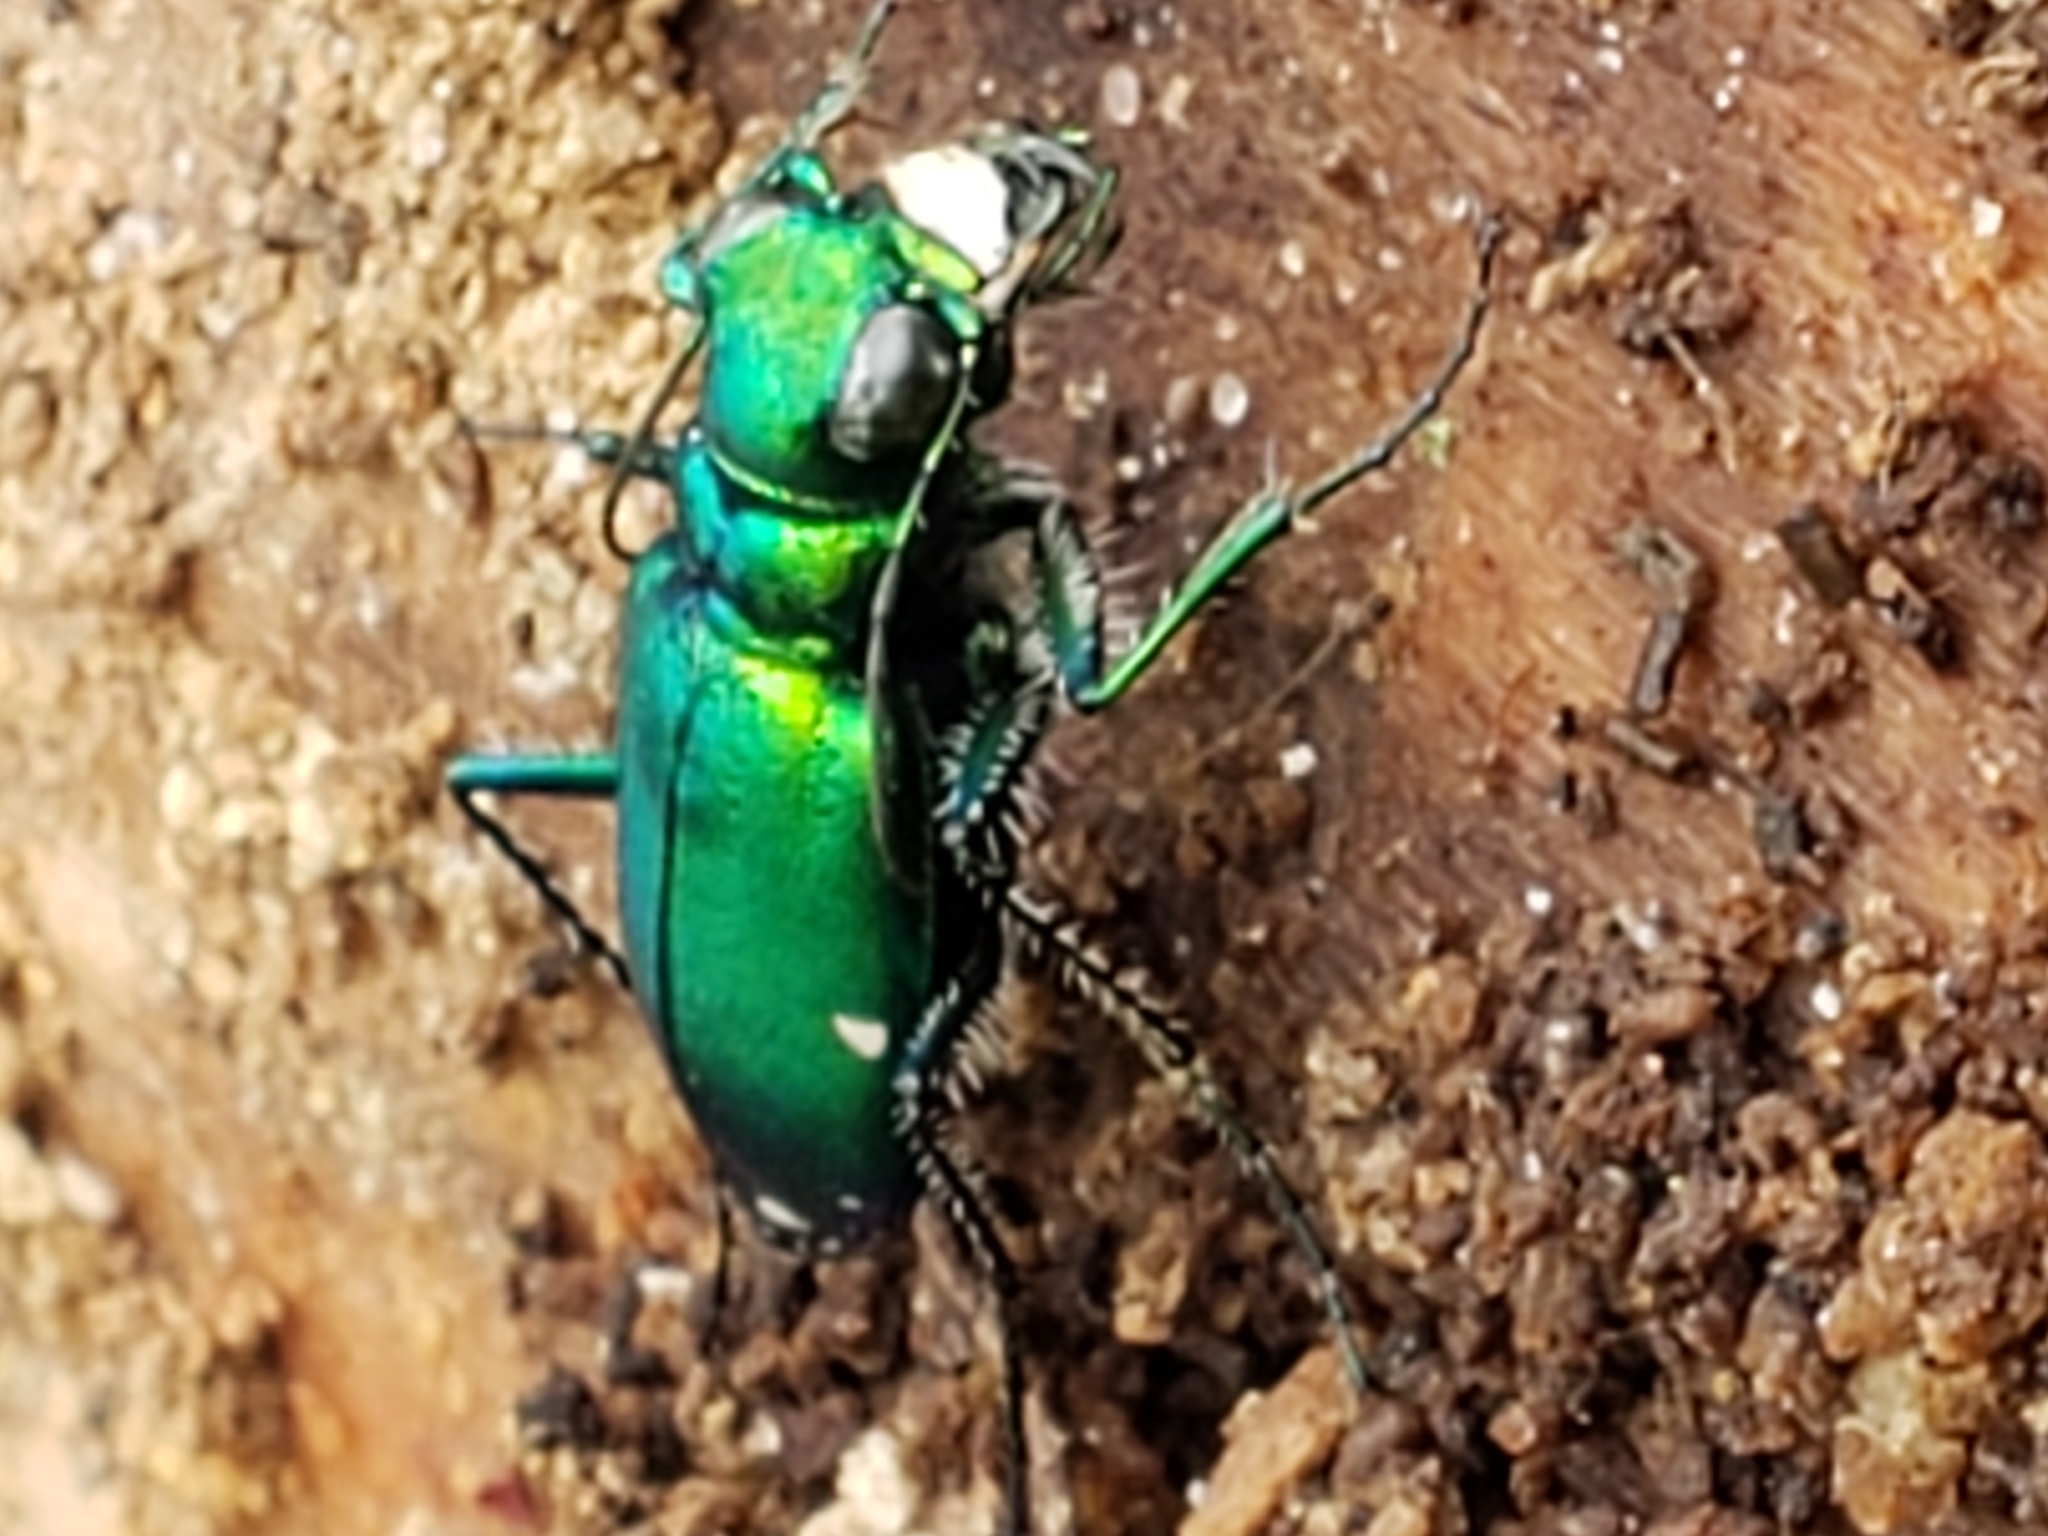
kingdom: Animalia
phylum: Arthropoda
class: Insecta
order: Coleoptera
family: Carabidae
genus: Cicindela
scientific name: Cicindela sexguttata
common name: Six-spotted tiger beetle
